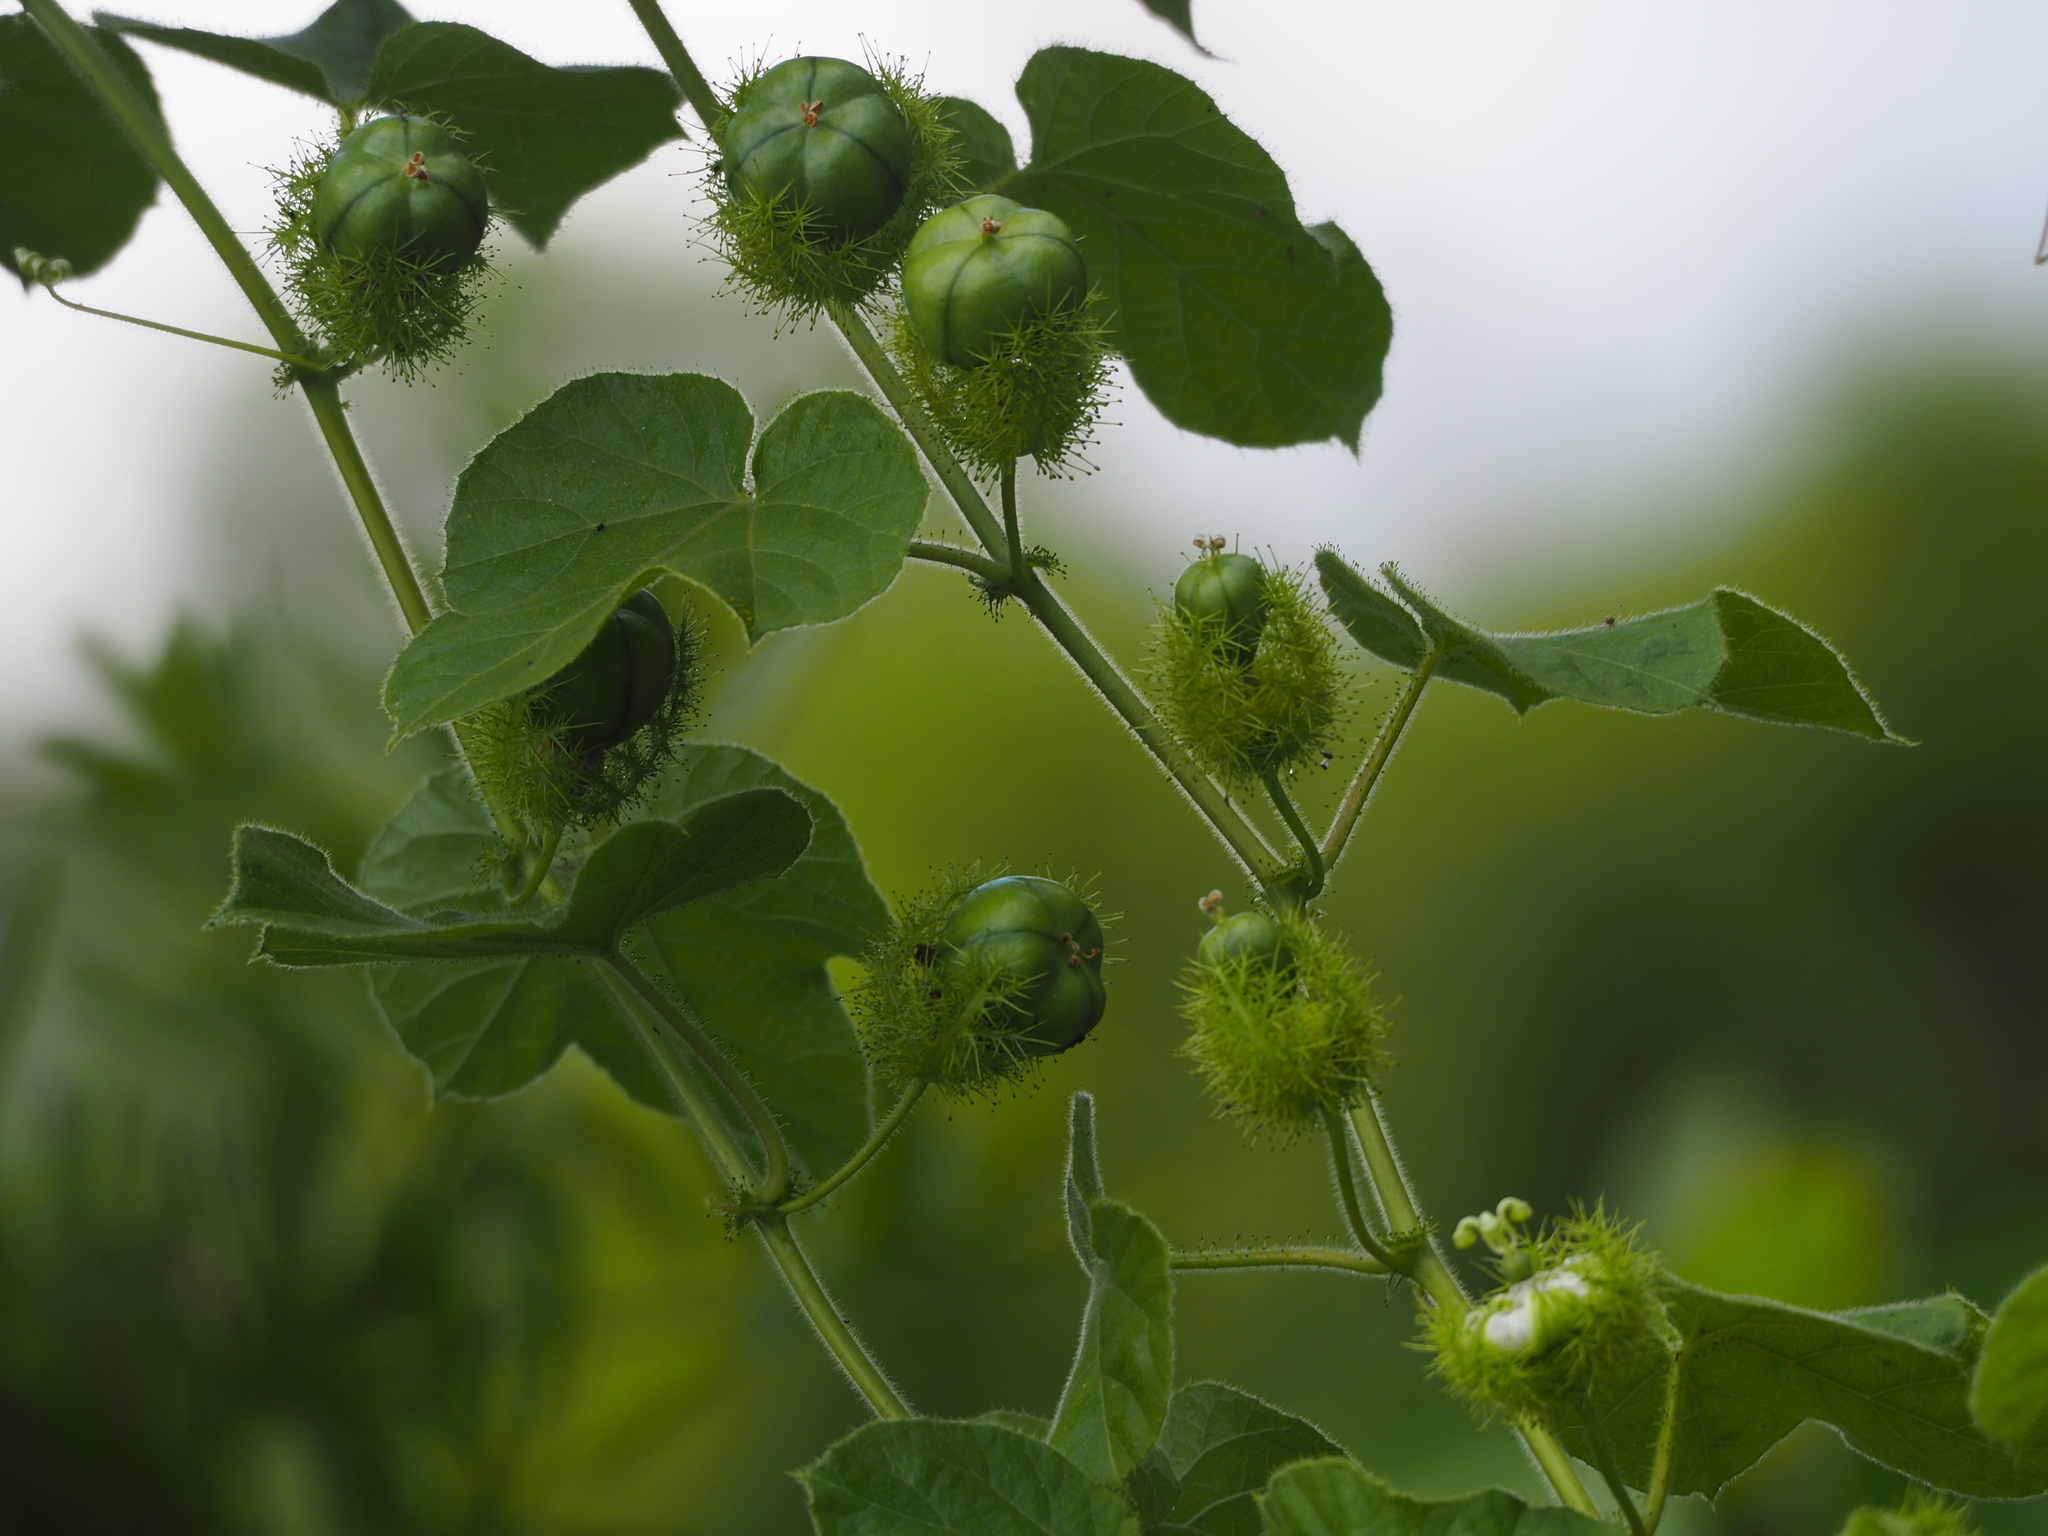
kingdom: Plantae
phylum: Tracheophyta
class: Magnoliopsida
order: Malpighiales
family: Passifloraceae
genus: Passiflora
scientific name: Passiflora vesicaria
